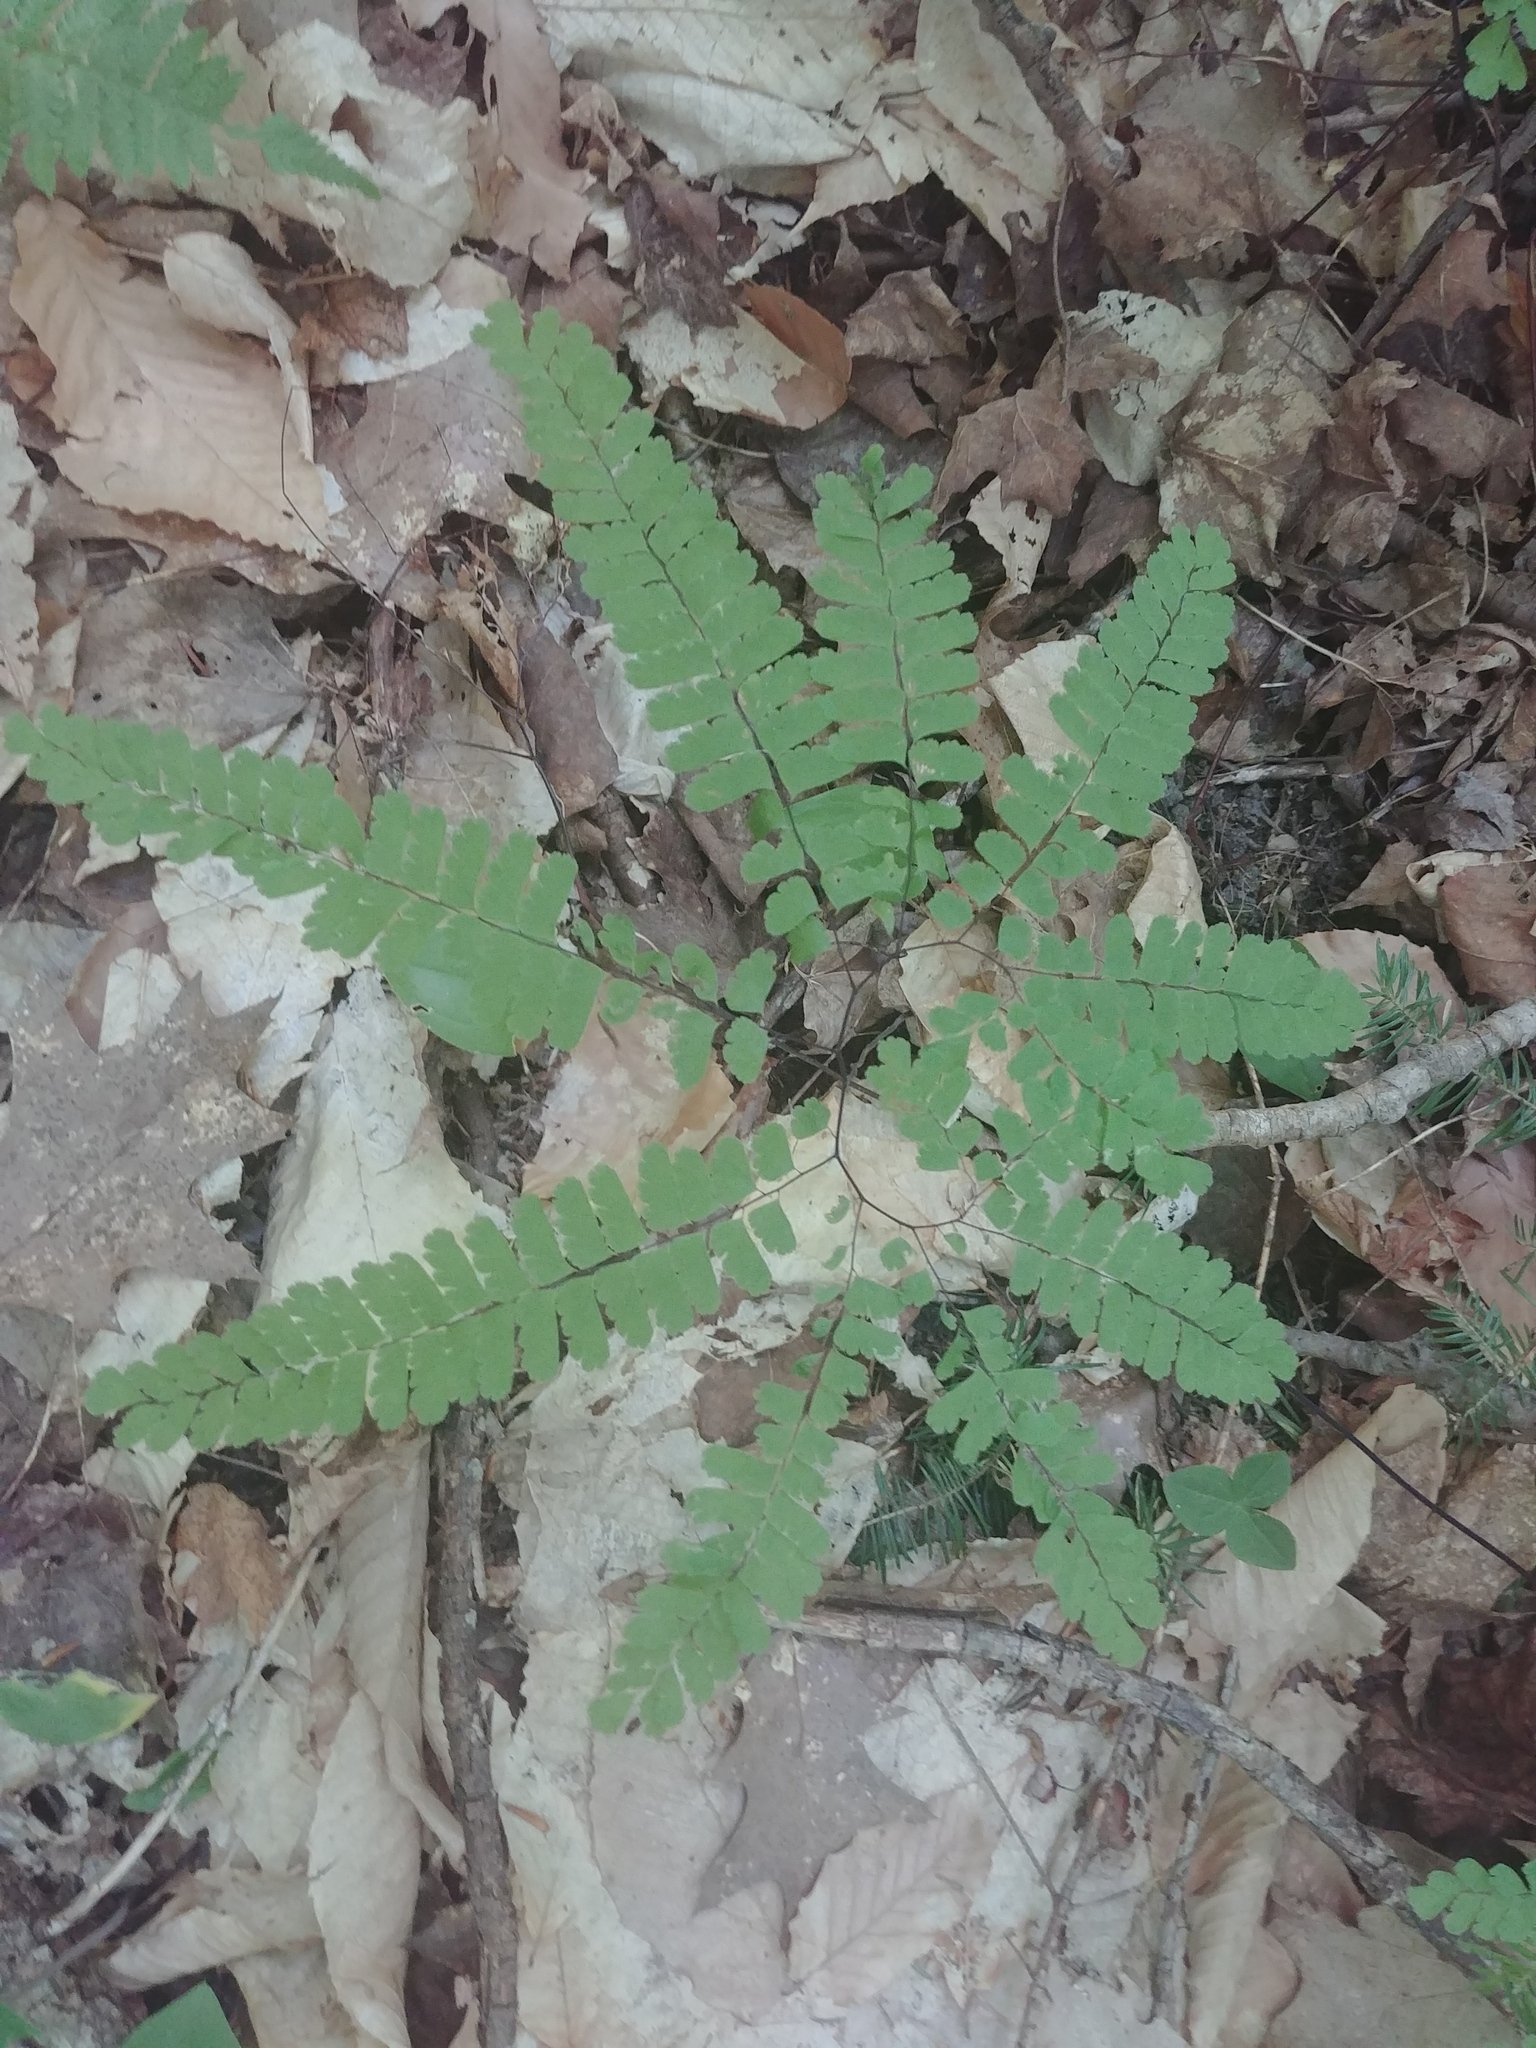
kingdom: Plantae
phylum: Tracheophyta
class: Polypodiopsida
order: Polypodiales
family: Pteridaceae
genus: Adiantum
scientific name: Adiantum pedatum
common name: Five-finger fern
